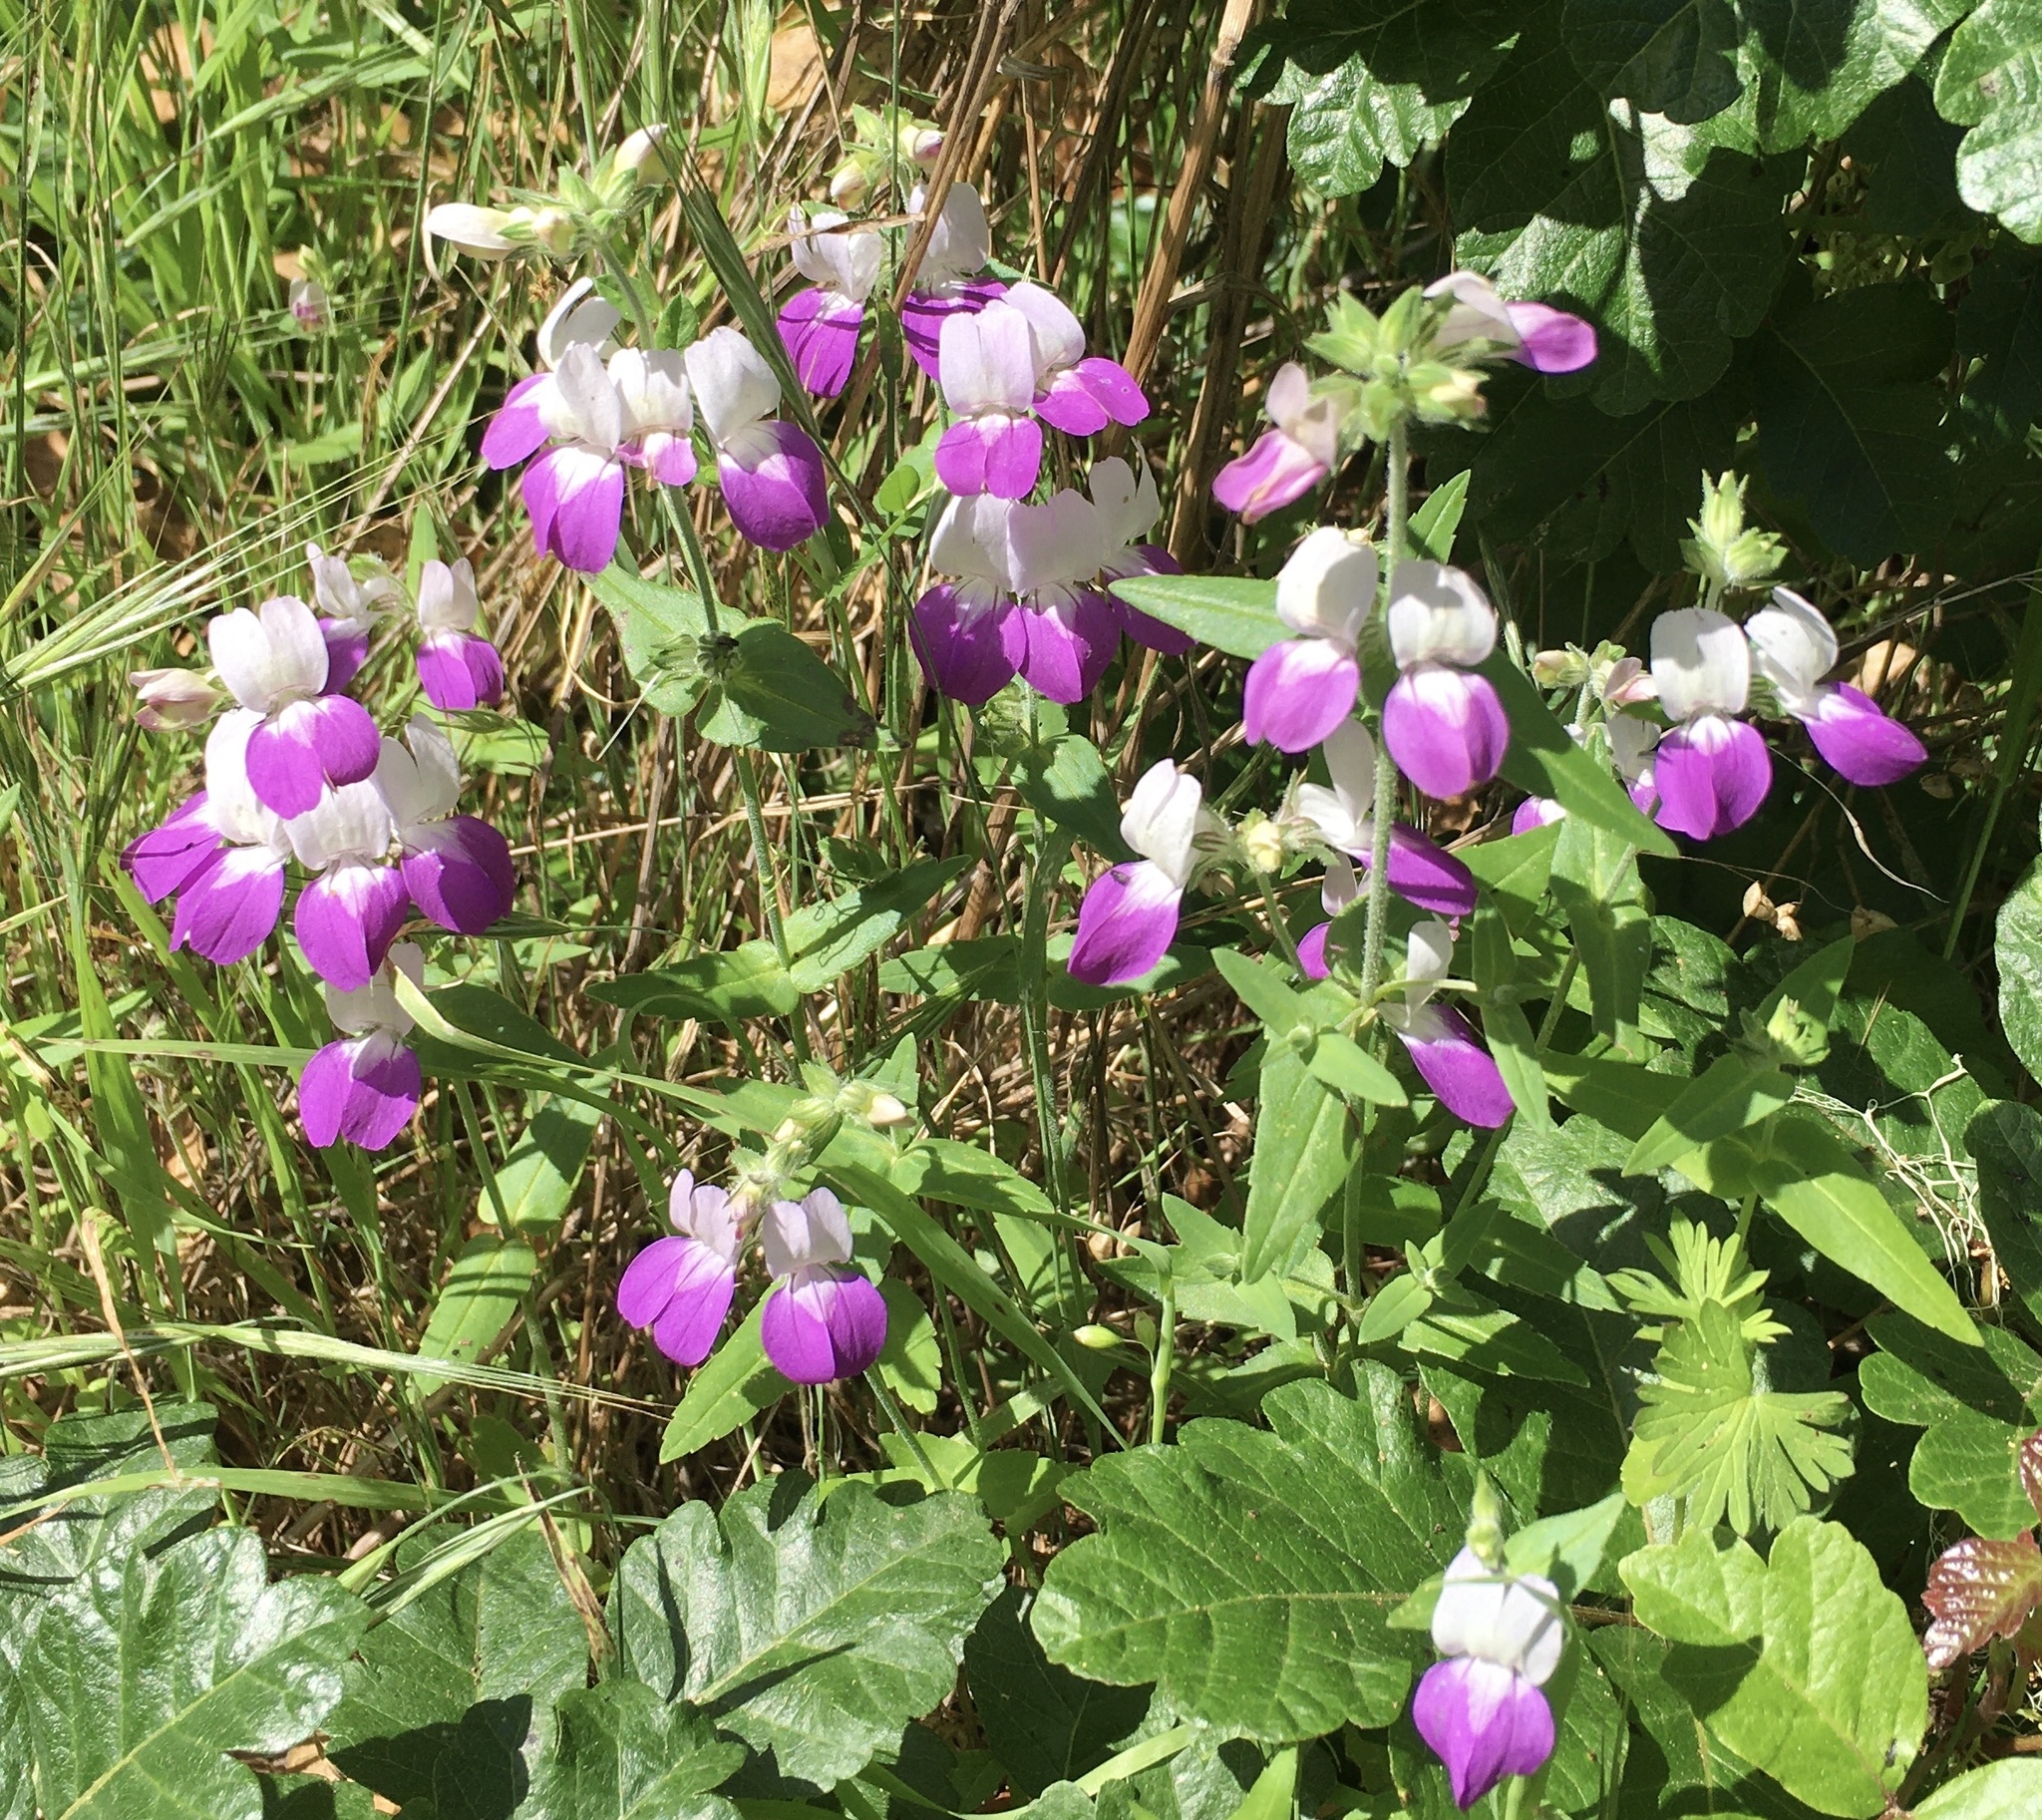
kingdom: Plantae
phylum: Tracheophyta
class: Magnoliopsida
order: Lamiales
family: Plantaginaceae
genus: Collinsia
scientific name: Collinsia heterophylla
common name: Chinese-houses
